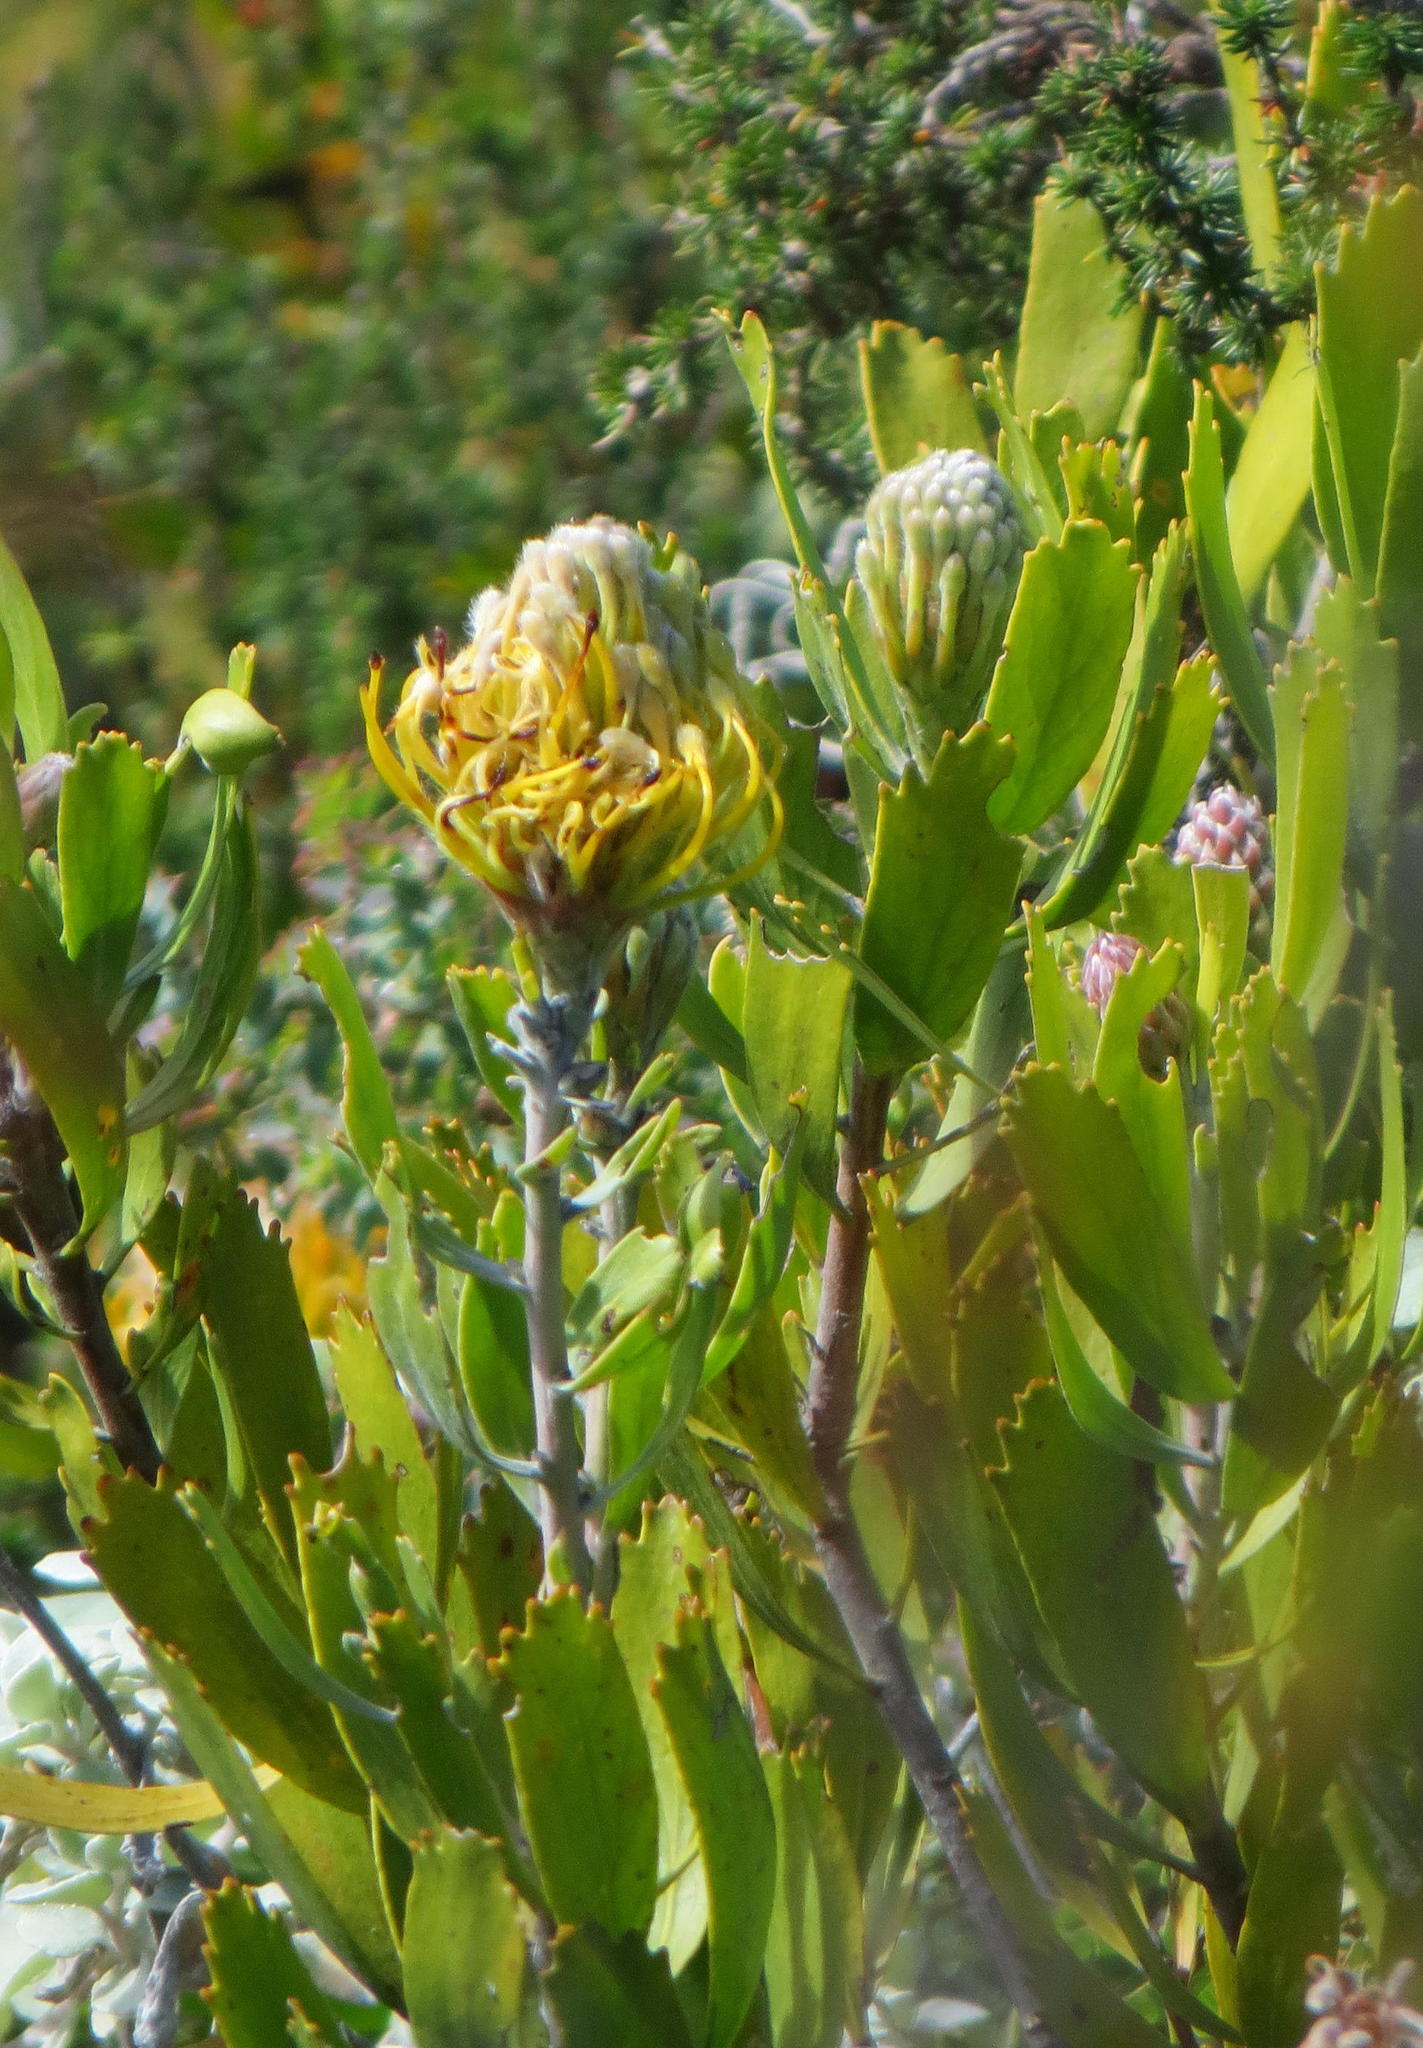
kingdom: Plantae
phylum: Tracheophyta
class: Magnoliopsida
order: Proteales
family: Proteaceae
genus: Leucospermum
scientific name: Leucospermum cuneiforme
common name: Common pincushion
